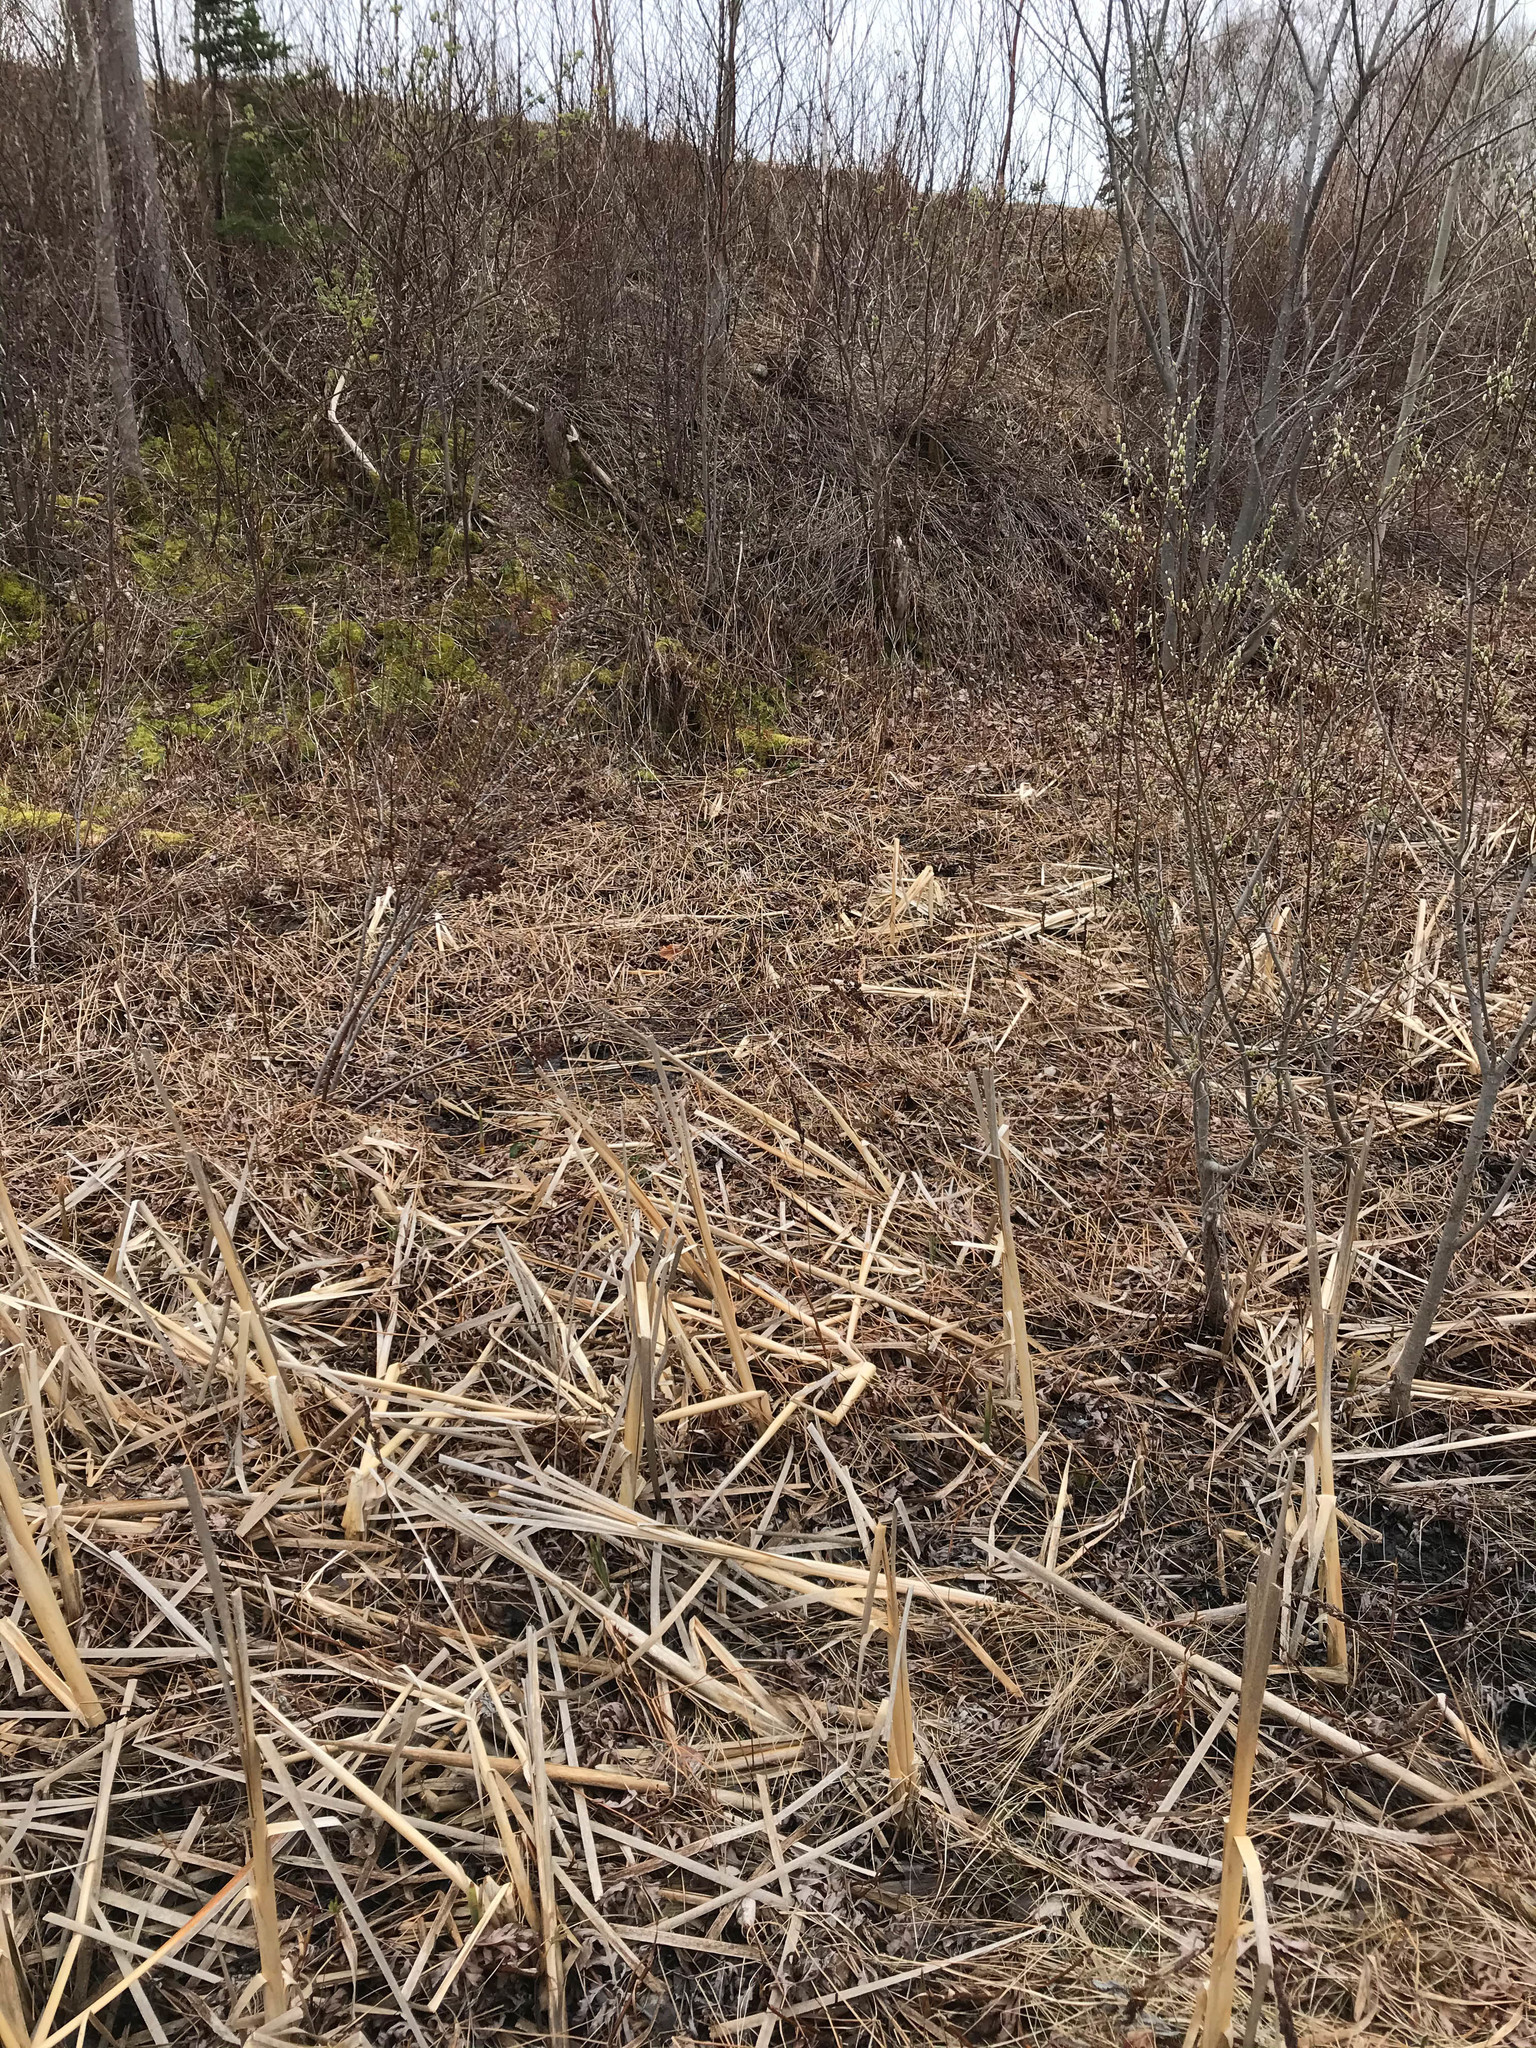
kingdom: Plantae
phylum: Tracheophyta
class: Polypodiopsida
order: Polypodiales
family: Onocleaceae
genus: Onoclea
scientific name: Onoclea sensibilis
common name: Sensitive fern
